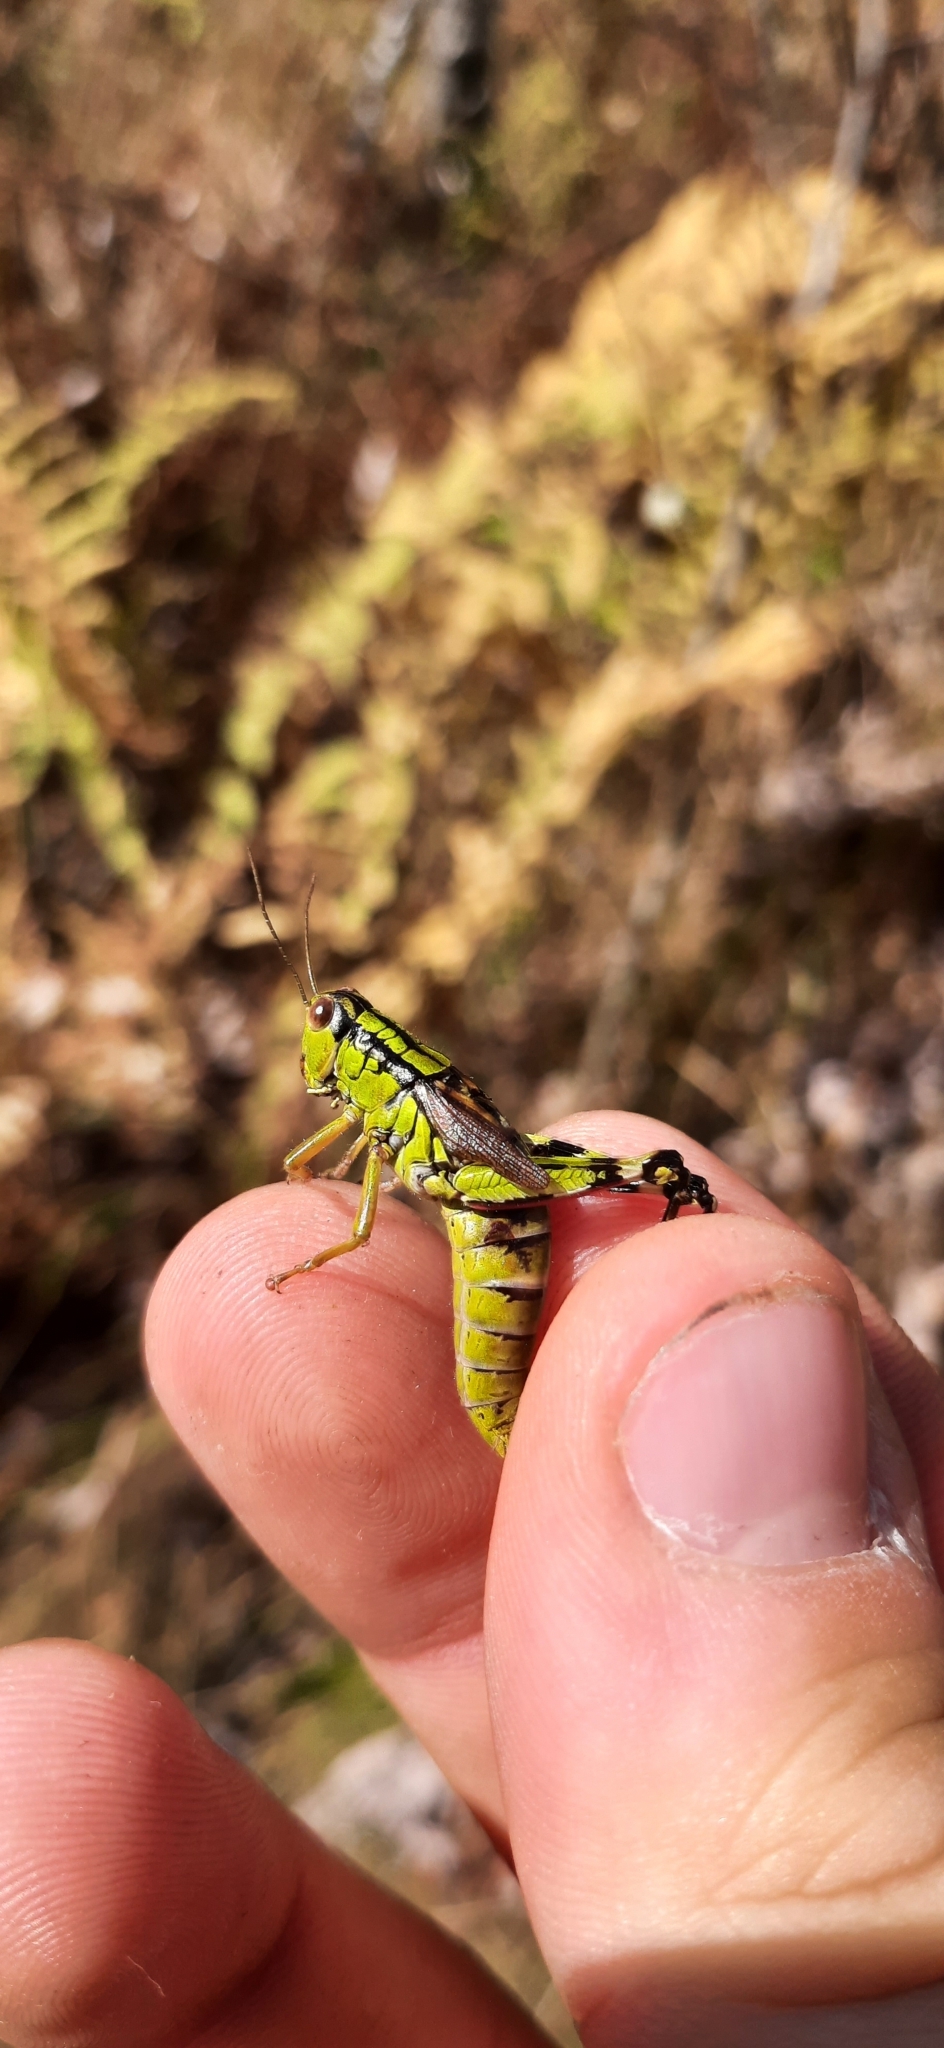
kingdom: Animalia
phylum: Arthropoda
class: Insecta
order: Orthoptera
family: Acrididae
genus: Nadigella
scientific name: Nadigella formosanta
